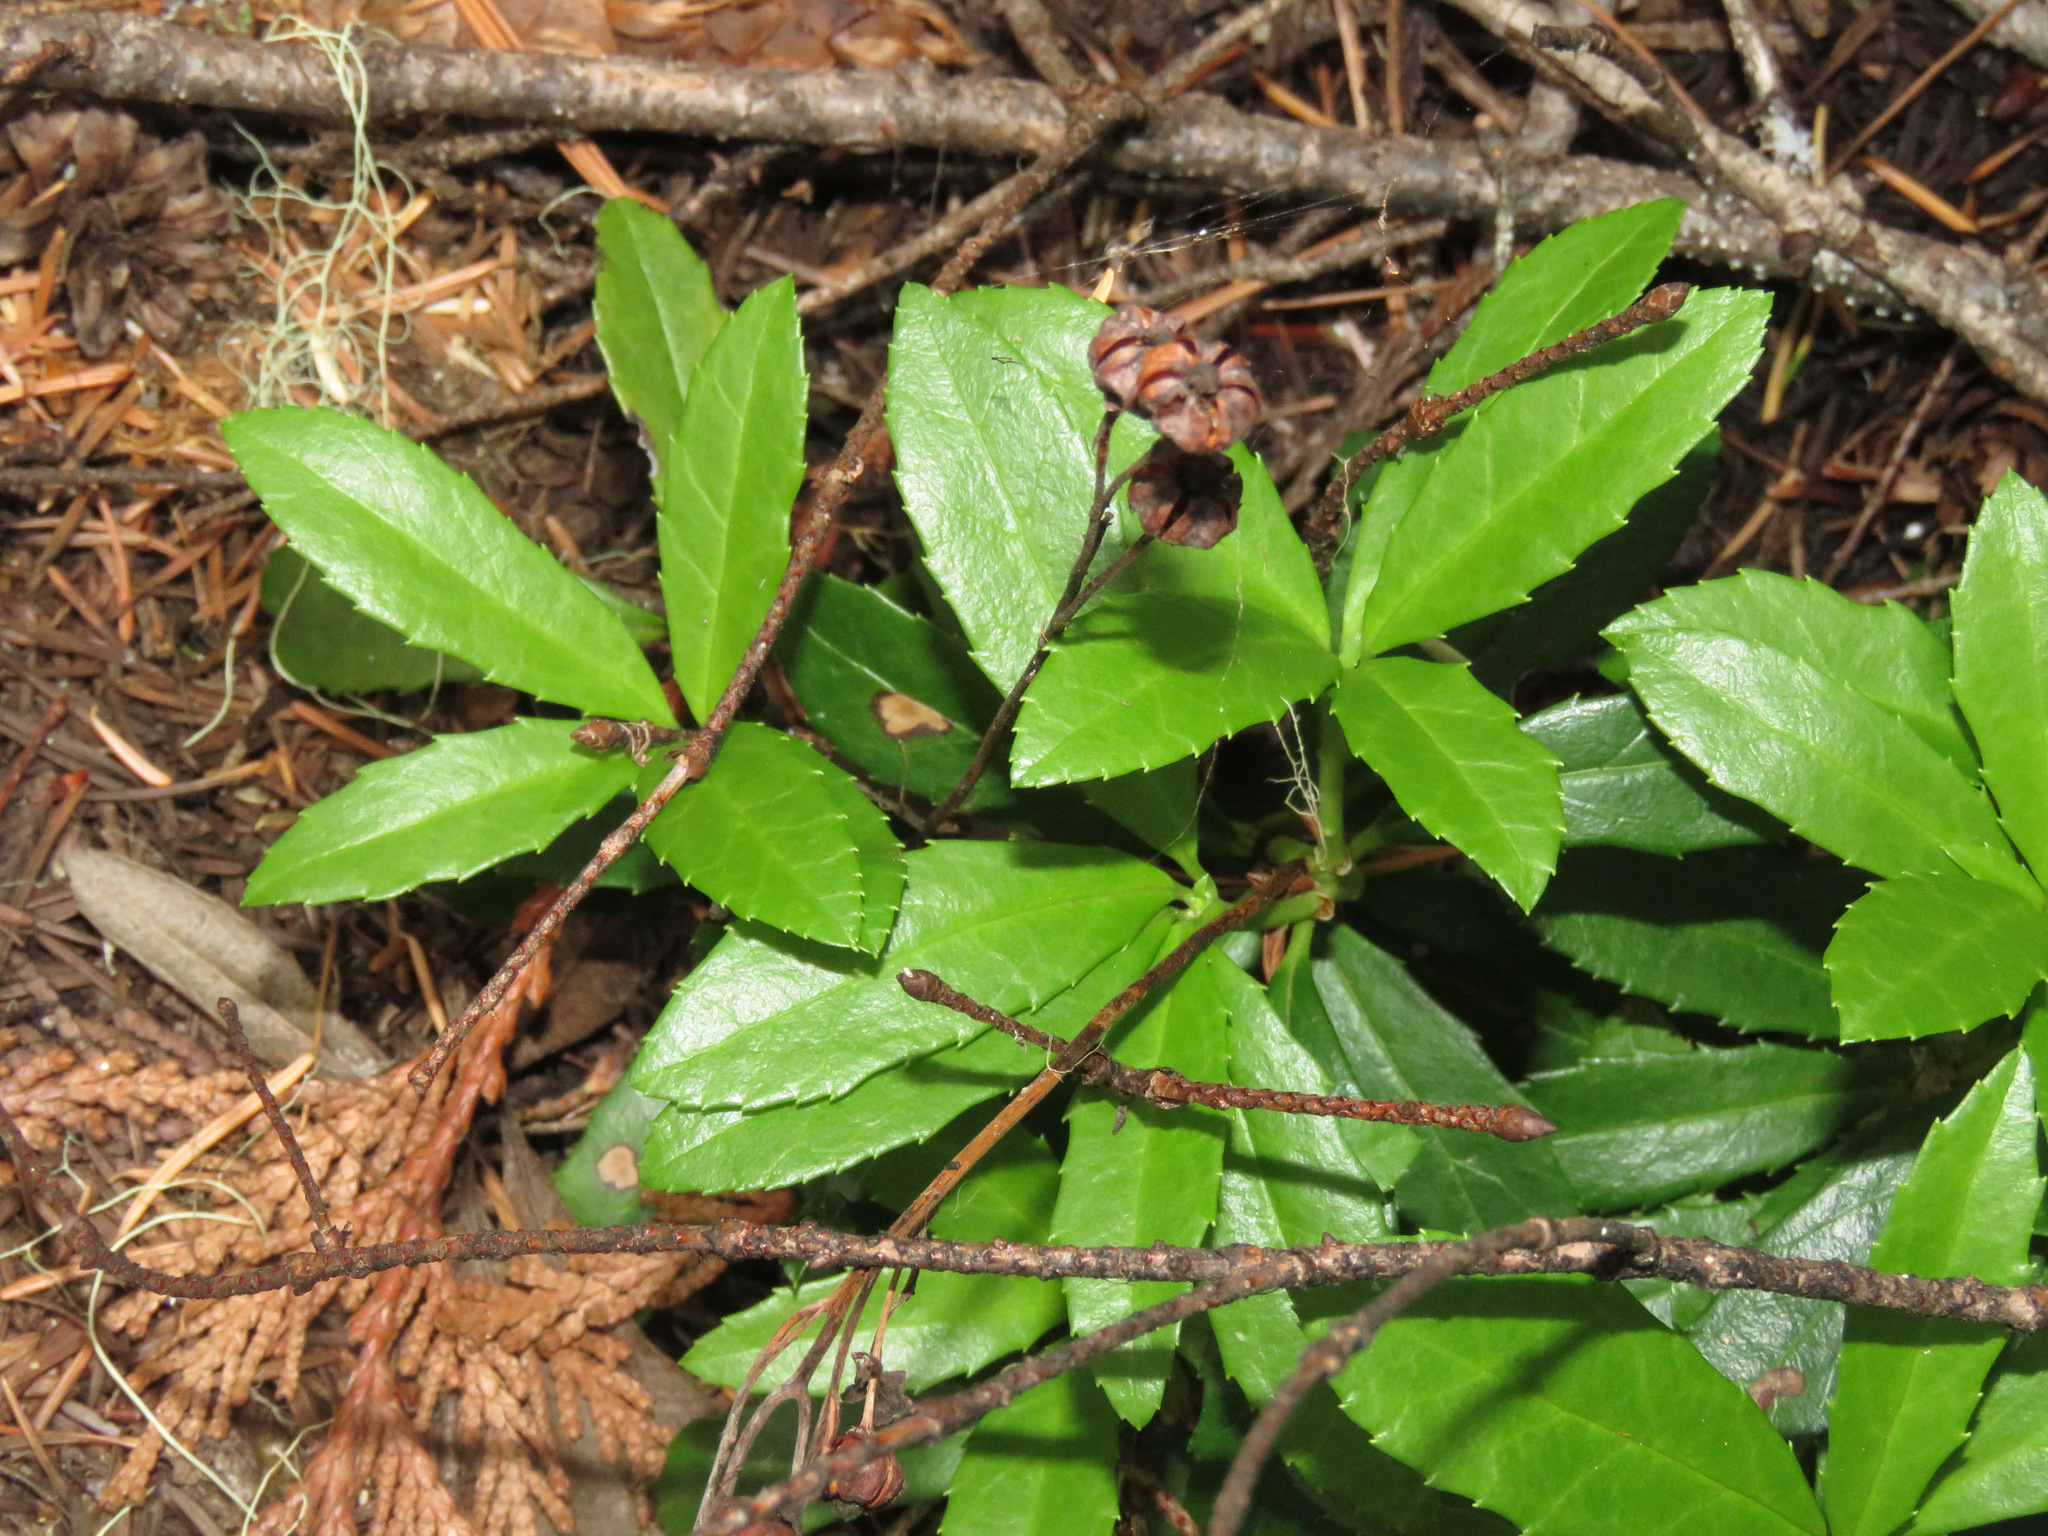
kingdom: Plantae
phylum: Tracheophyta
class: Magnoliopsida
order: Ericales
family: Ericaceae
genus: Chimaphila
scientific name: Chimaphila umbellata
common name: Pipsissewa
